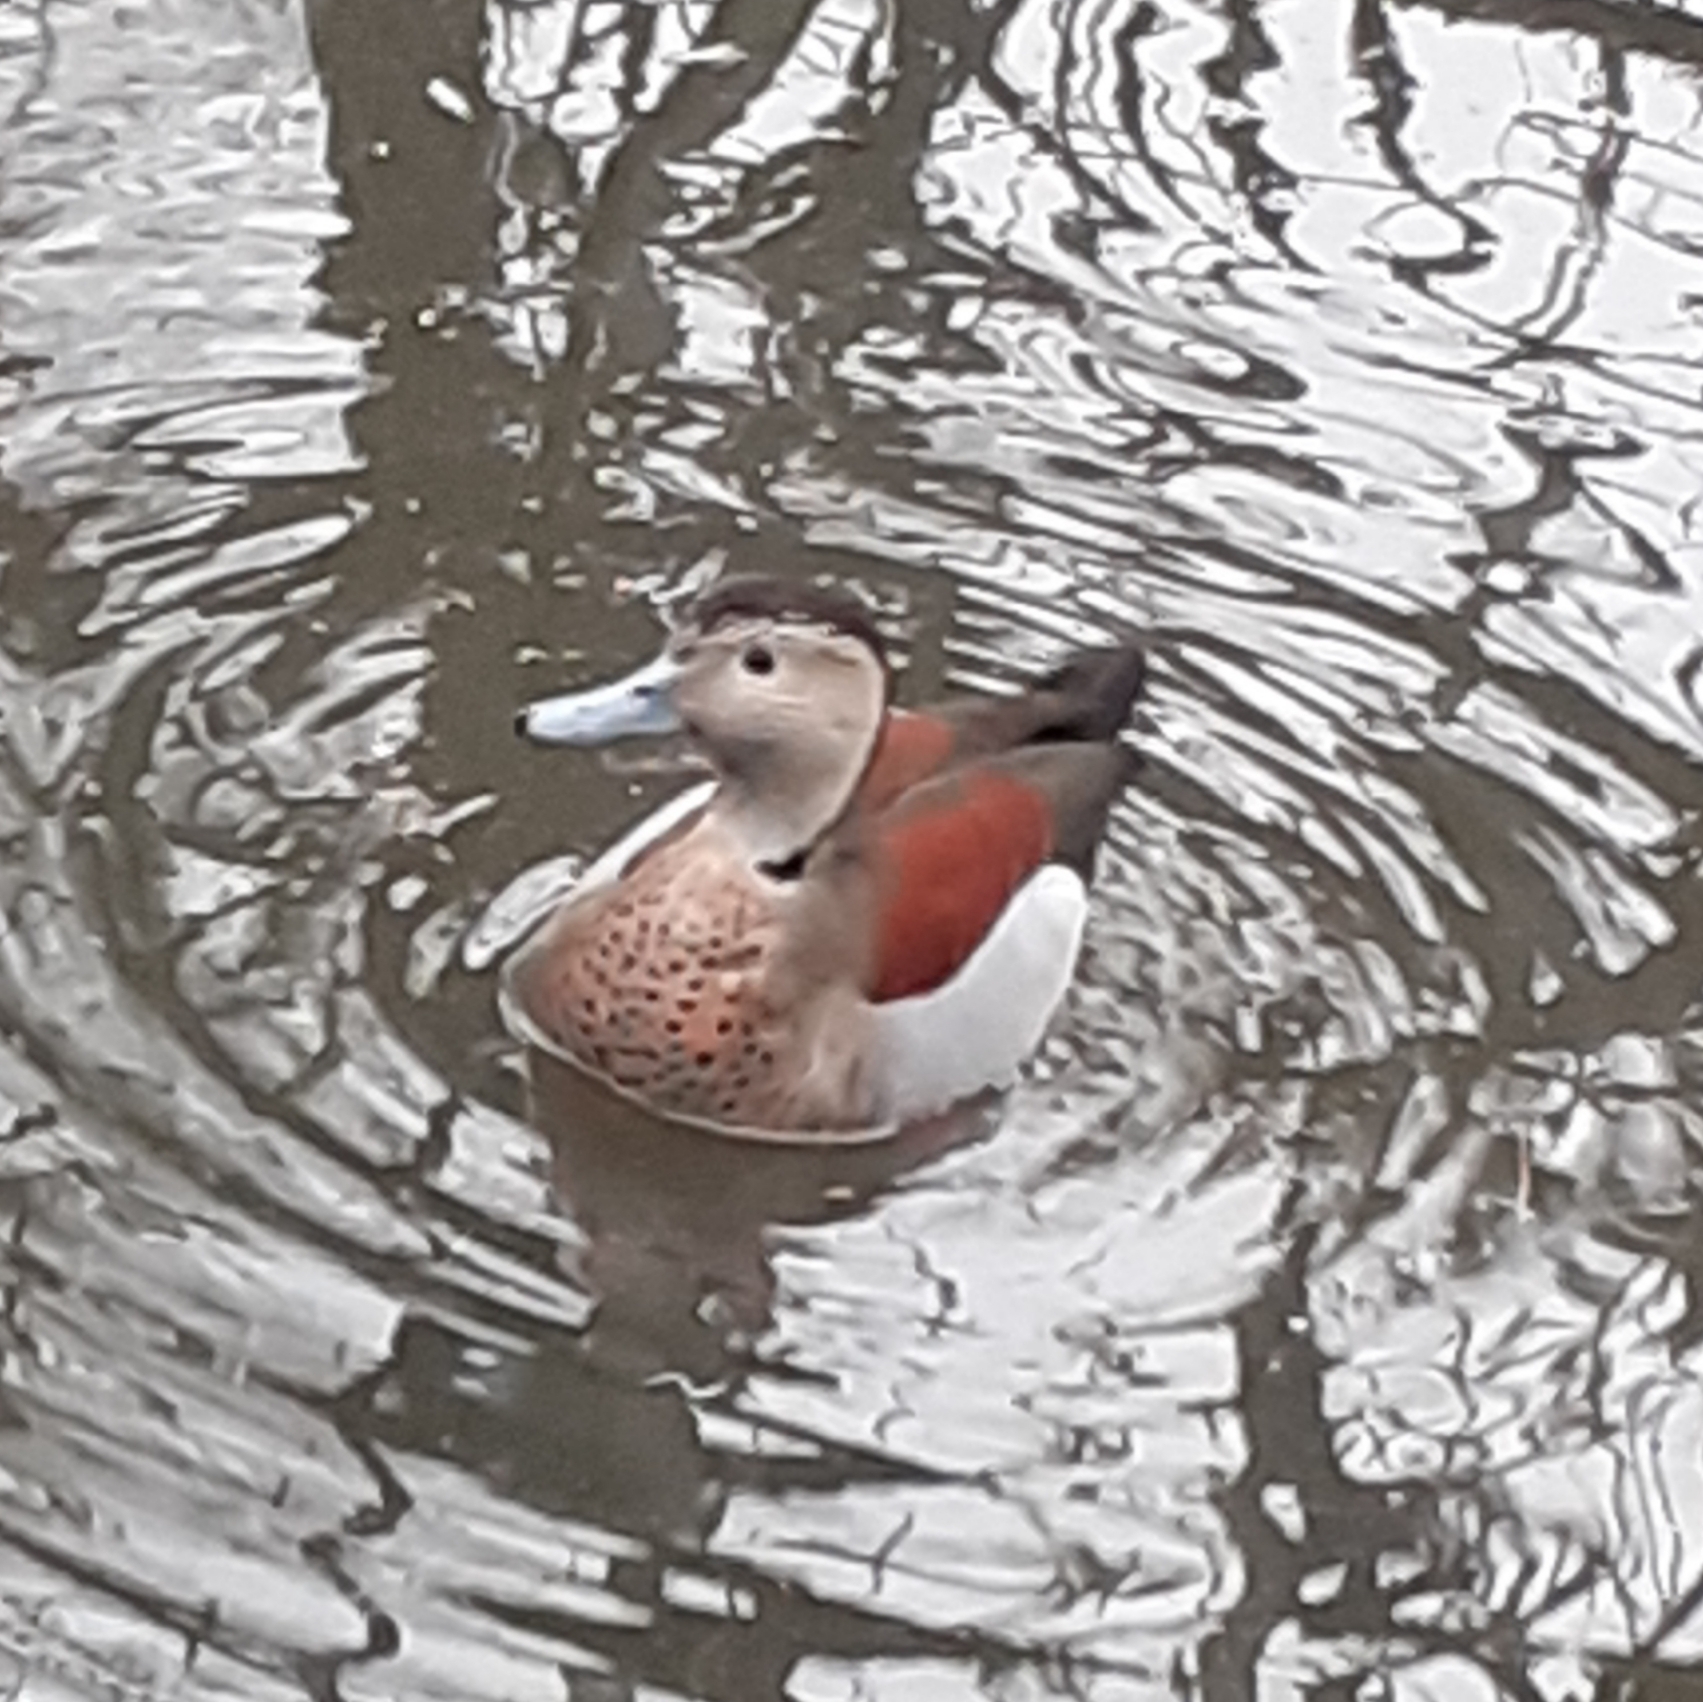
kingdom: Animalia
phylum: Chordata
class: Aves
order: Anseriformes
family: Anatidae
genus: Callonetta
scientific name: Callonetta leucophrys
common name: Ringed teal
